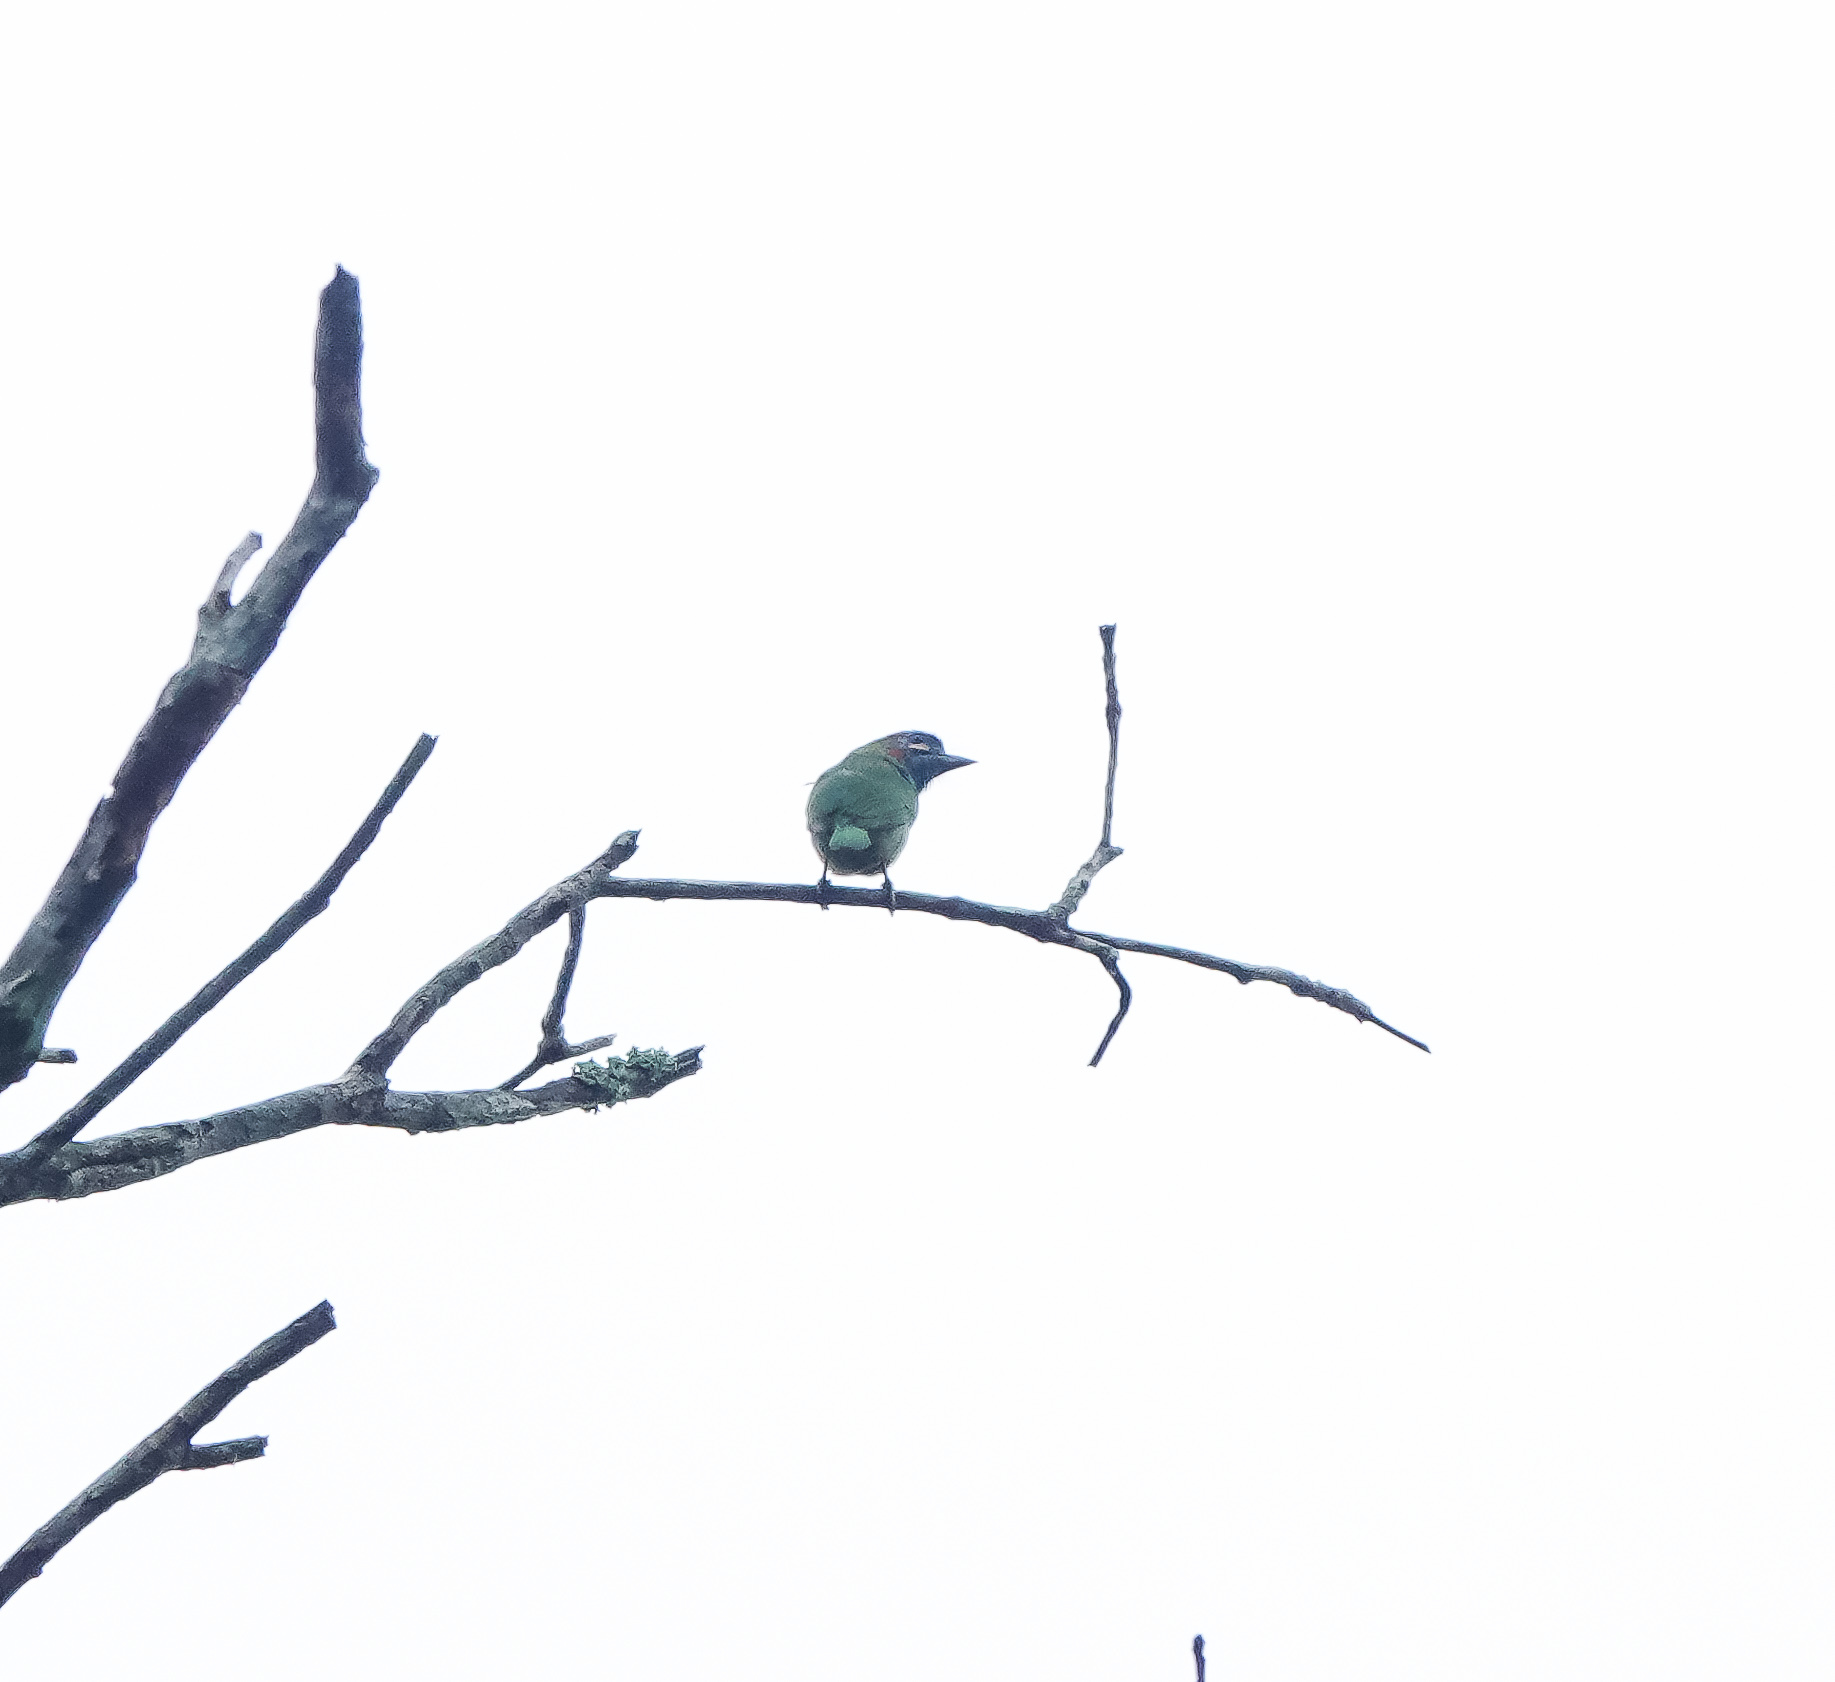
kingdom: Animalia
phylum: Chordata
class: Aves
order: Piciformes
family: Megalaimidae
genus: Psilopogon
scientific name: Psilopogon duvaucelii
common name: Blue-eared barbet
